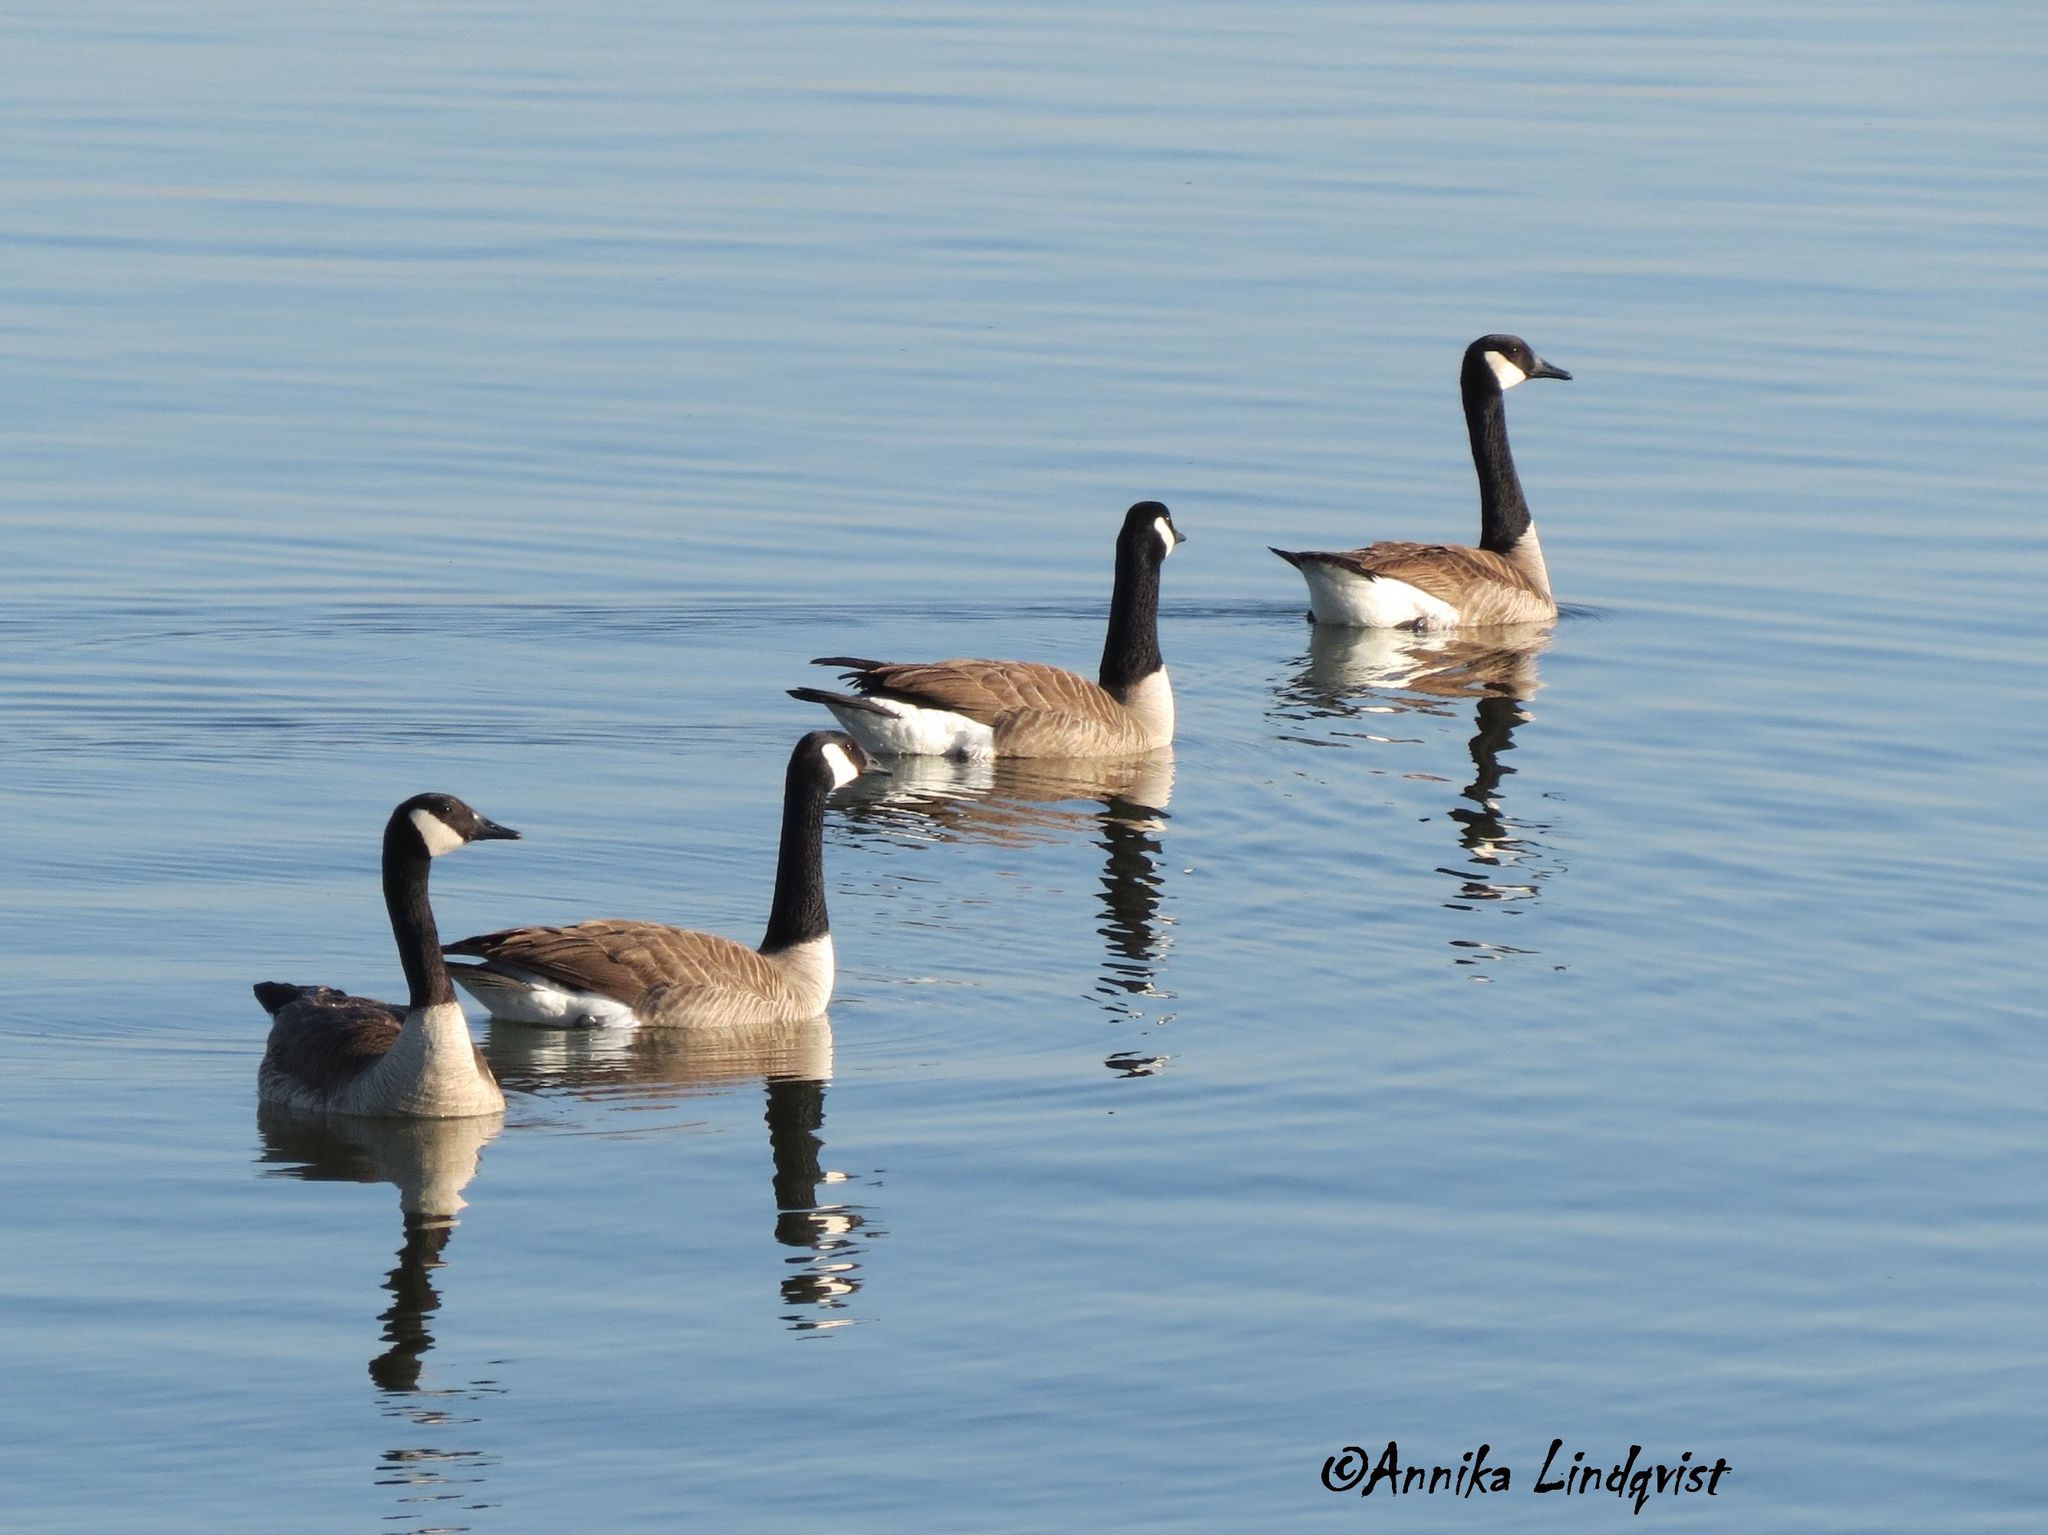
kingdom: Animalia
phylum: Chordata
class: Aves
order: Anseriformes
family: Anatidae
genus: Branta
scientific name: Branta canadensis
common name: Canada goose
